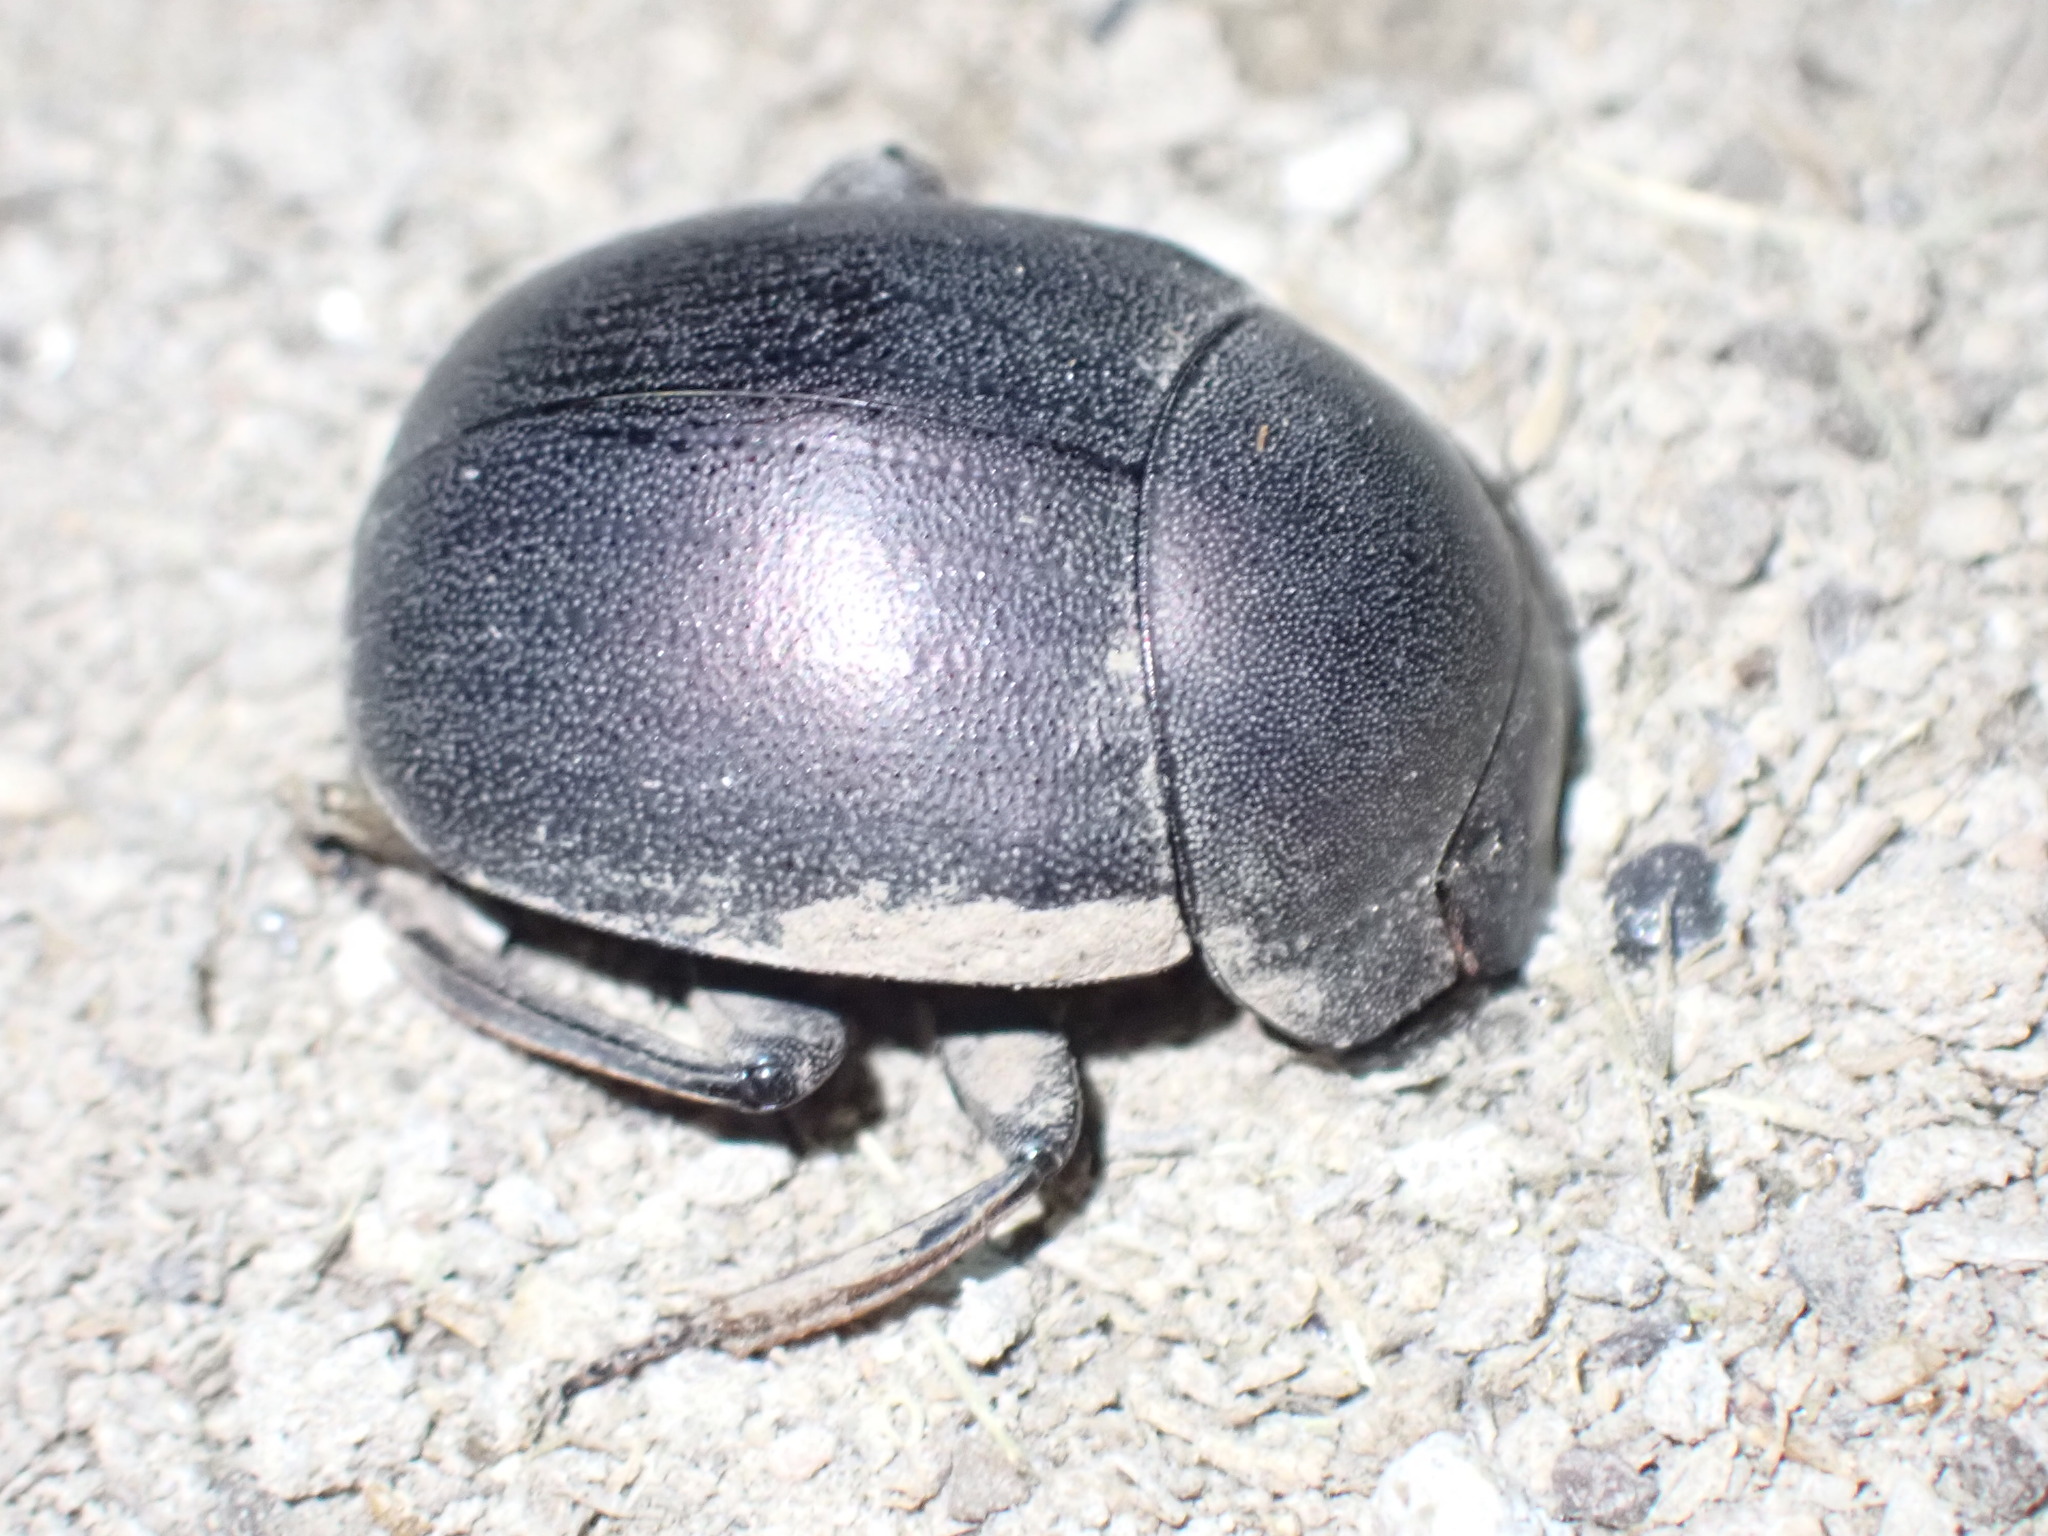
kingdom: Animalia
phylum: Arthropoda
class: Insecta
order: Coleoptera
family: Scarabaeidae
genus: Chalconotus
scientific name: Chalconotus convexus
